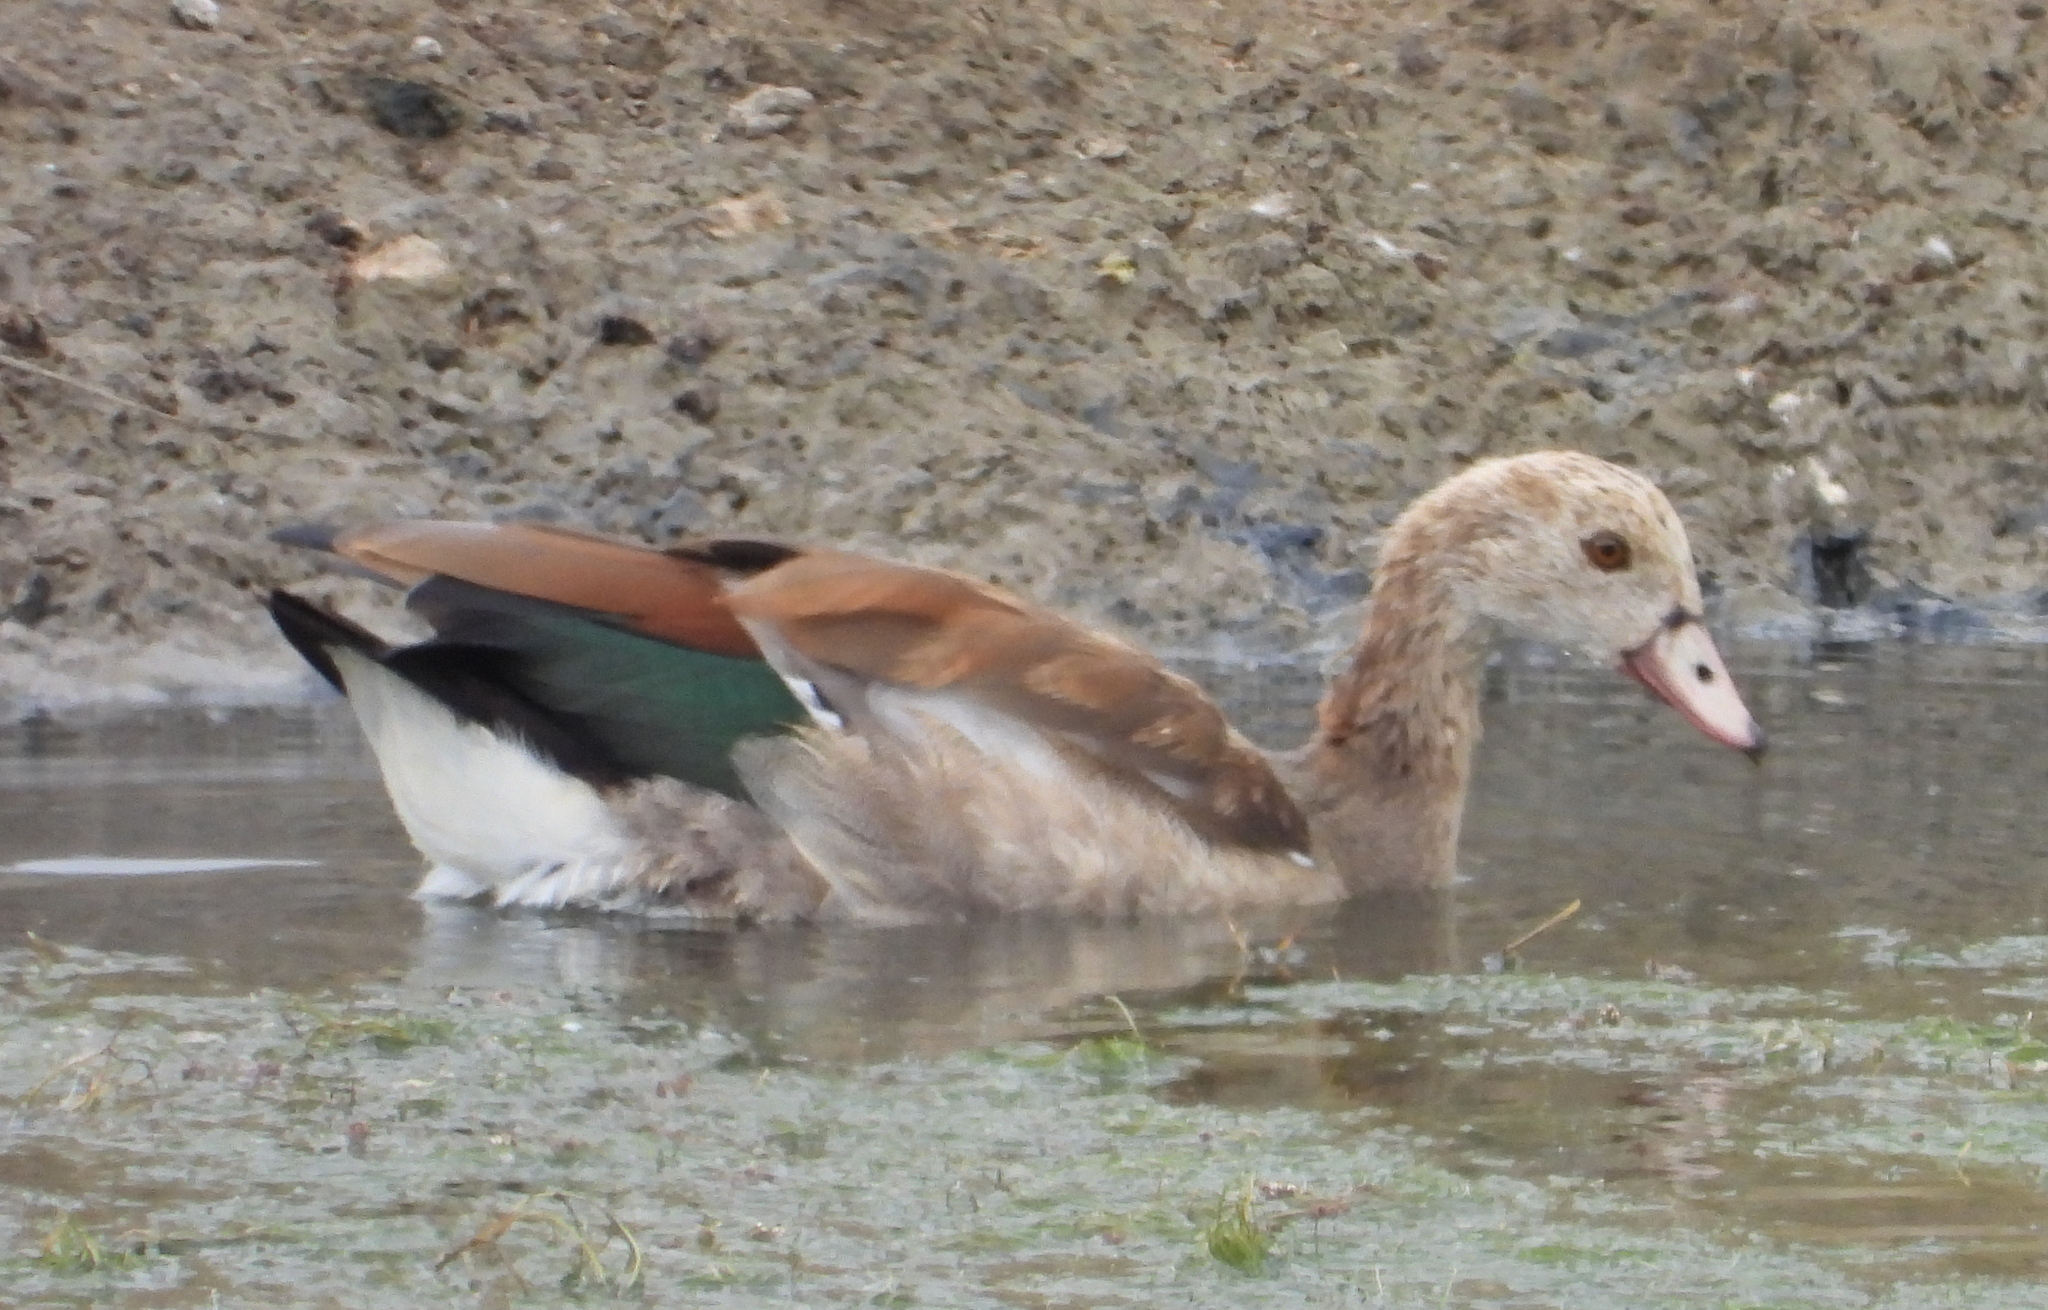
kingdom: Animalia
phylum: Chordata
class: Aves
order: Anseriformes
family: Anatidae
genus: Alopochen
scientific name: Alopochen aegyptiaca
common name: Egyptian goose
